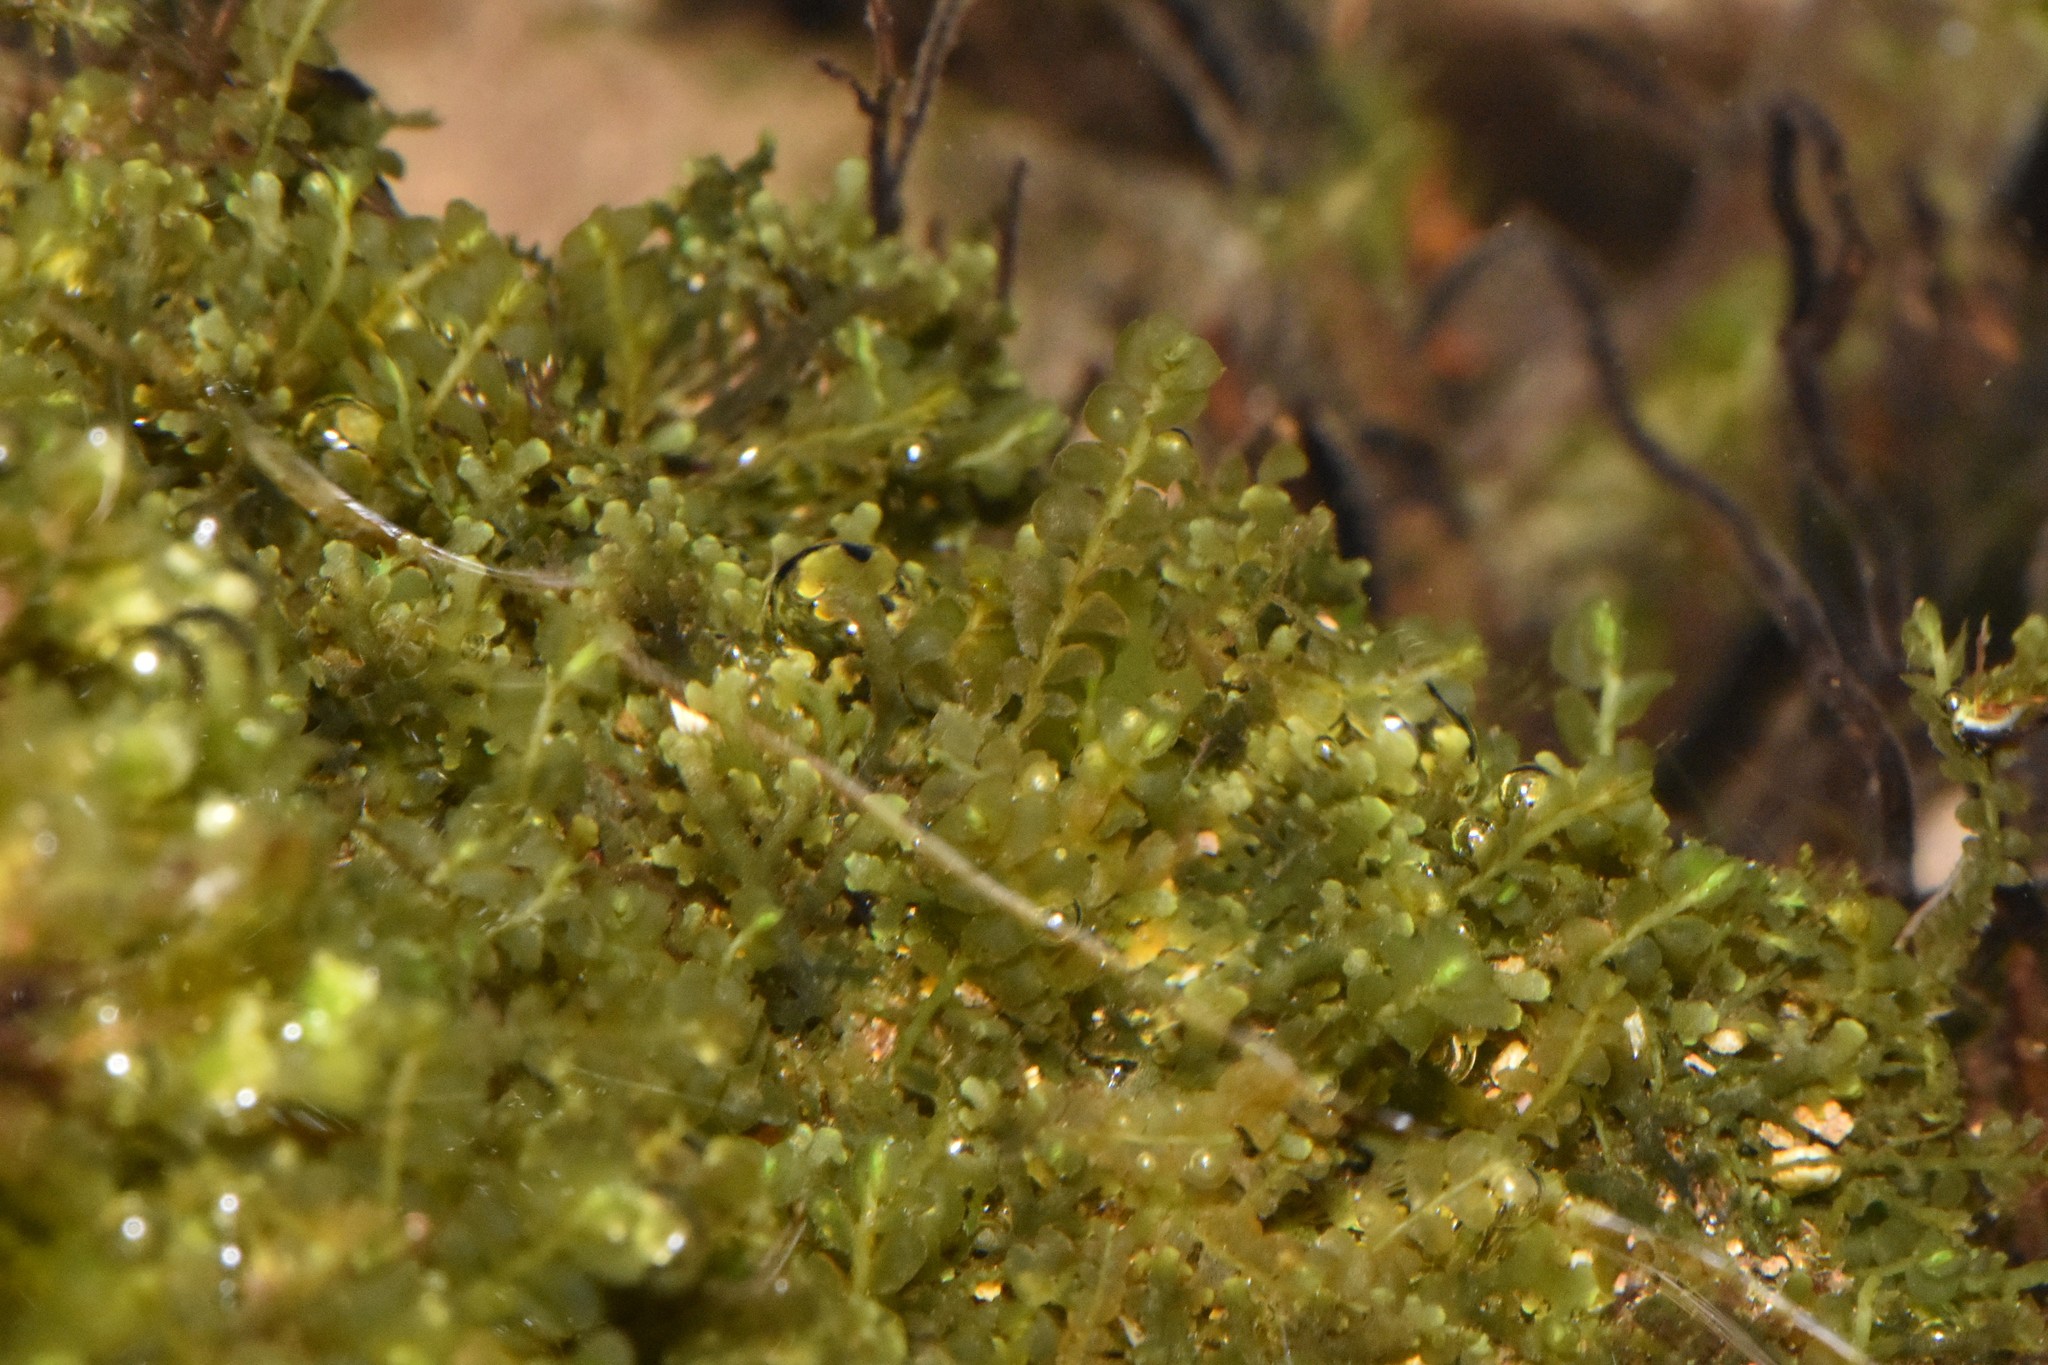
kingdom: Plantae
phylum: Marchantiophyta
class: Jungermanniopsida
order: Jungermanniales
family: Lophocoleaceae
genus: Chiloscyphus
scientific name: Chiloscyphus polyanthos
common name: Square-leaved crestwort
